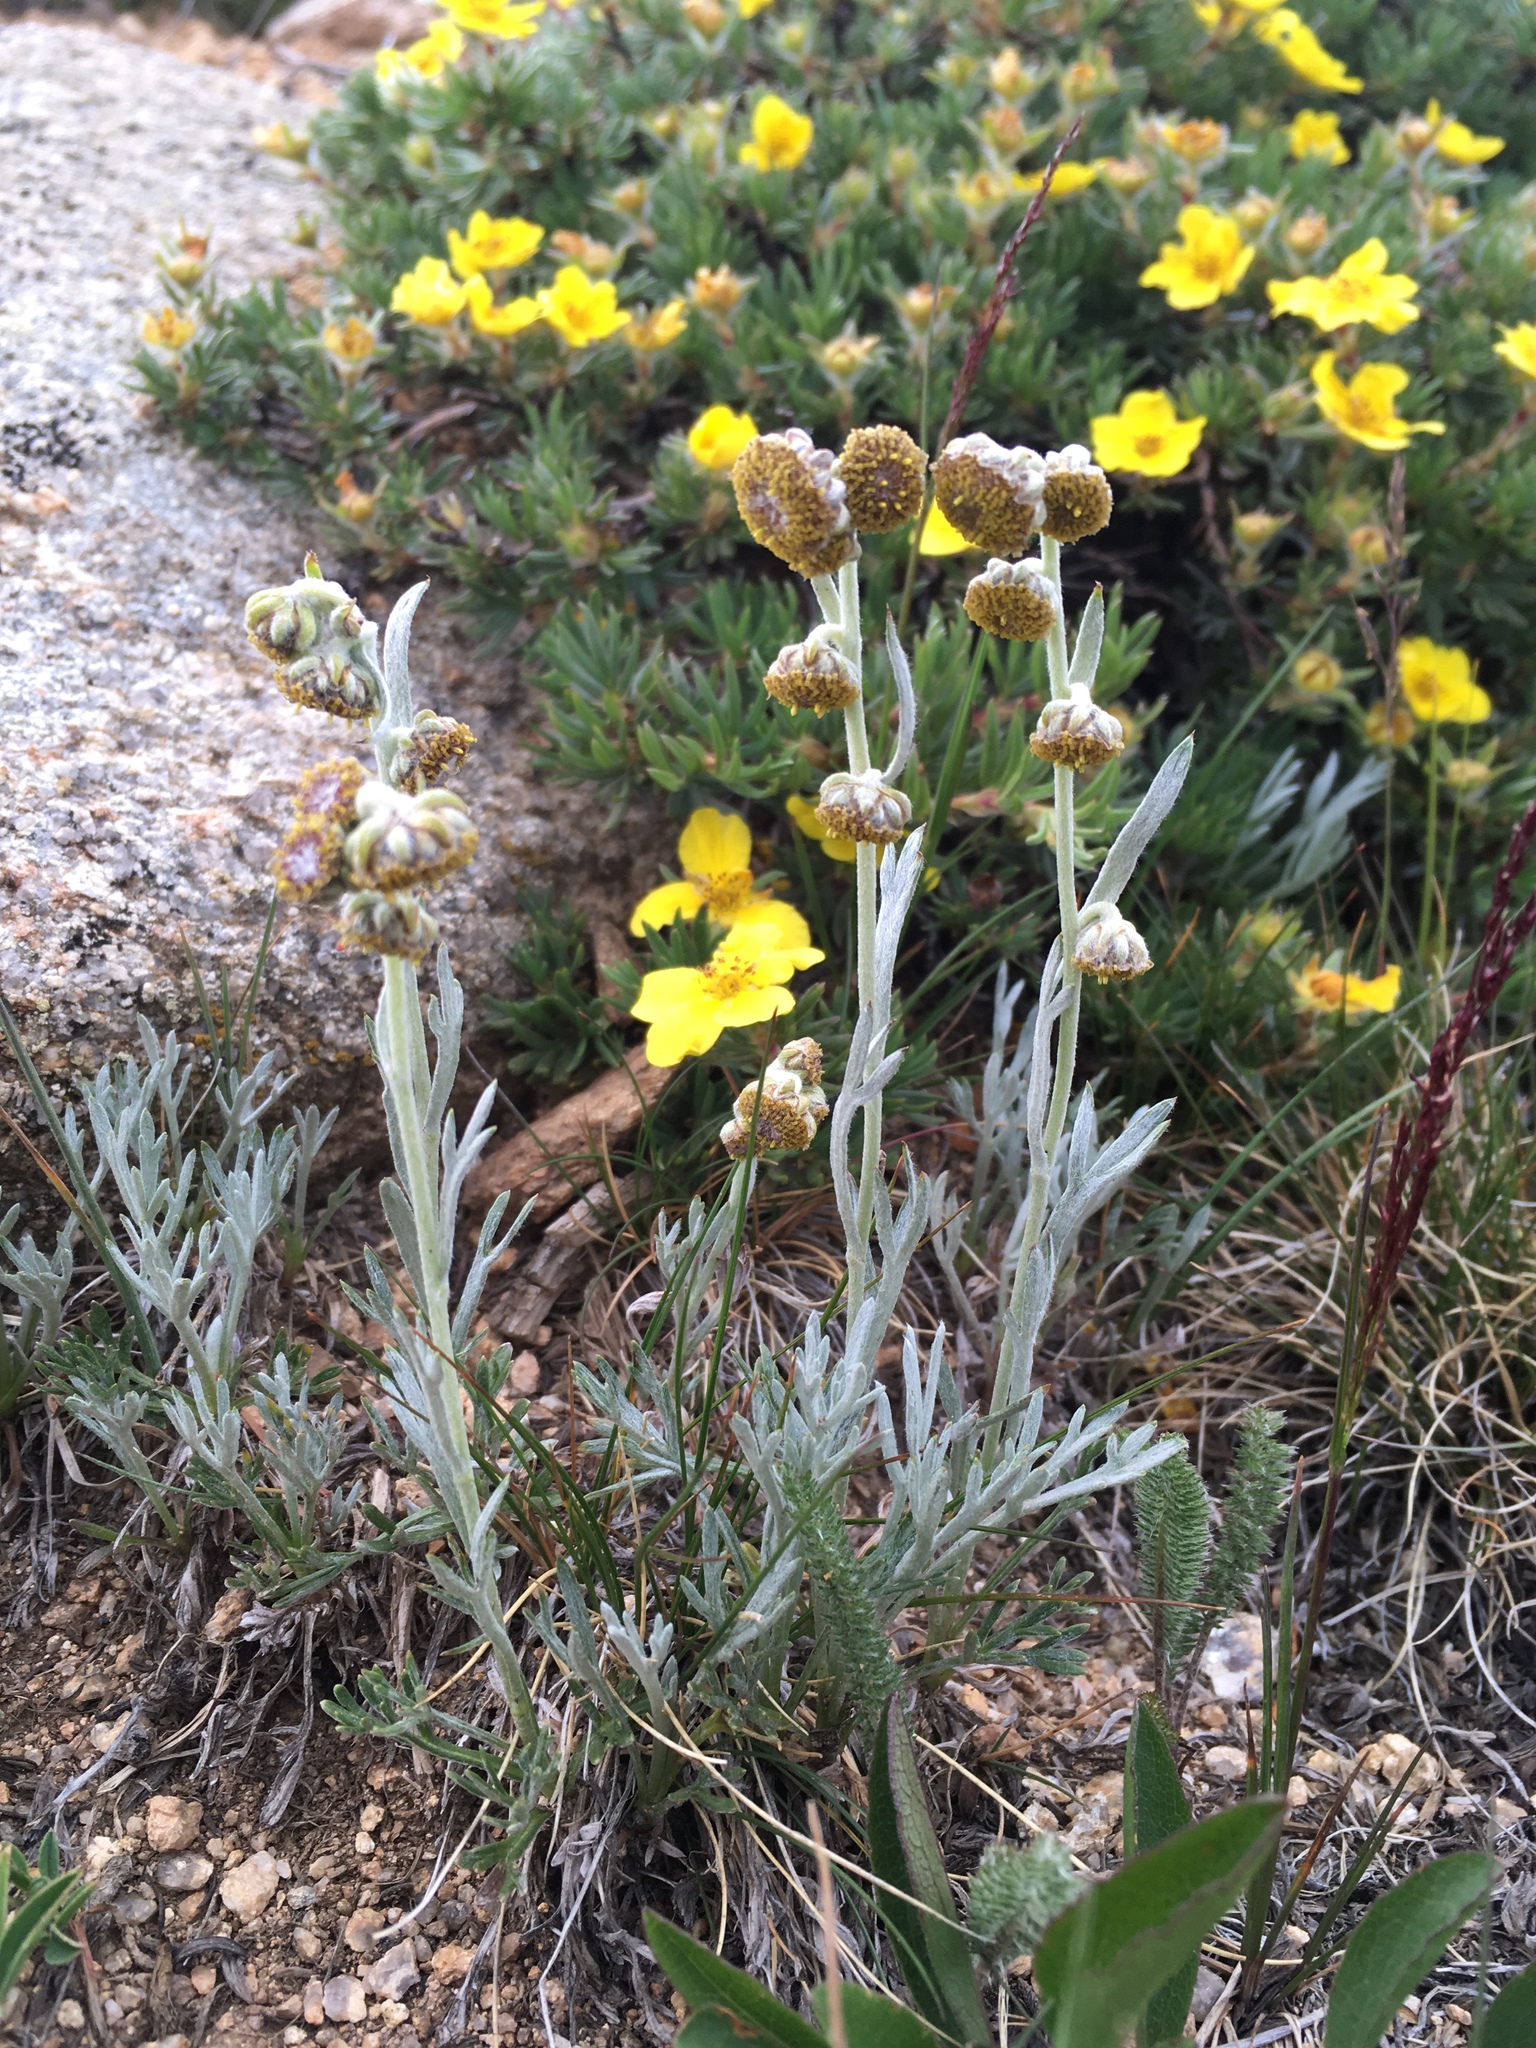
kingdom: Plantae
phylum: Tracheophyta
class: Magnoliopsida
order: Asterales
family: Asteraceae
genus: Artemisia
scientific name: Artemisia scopulorum
